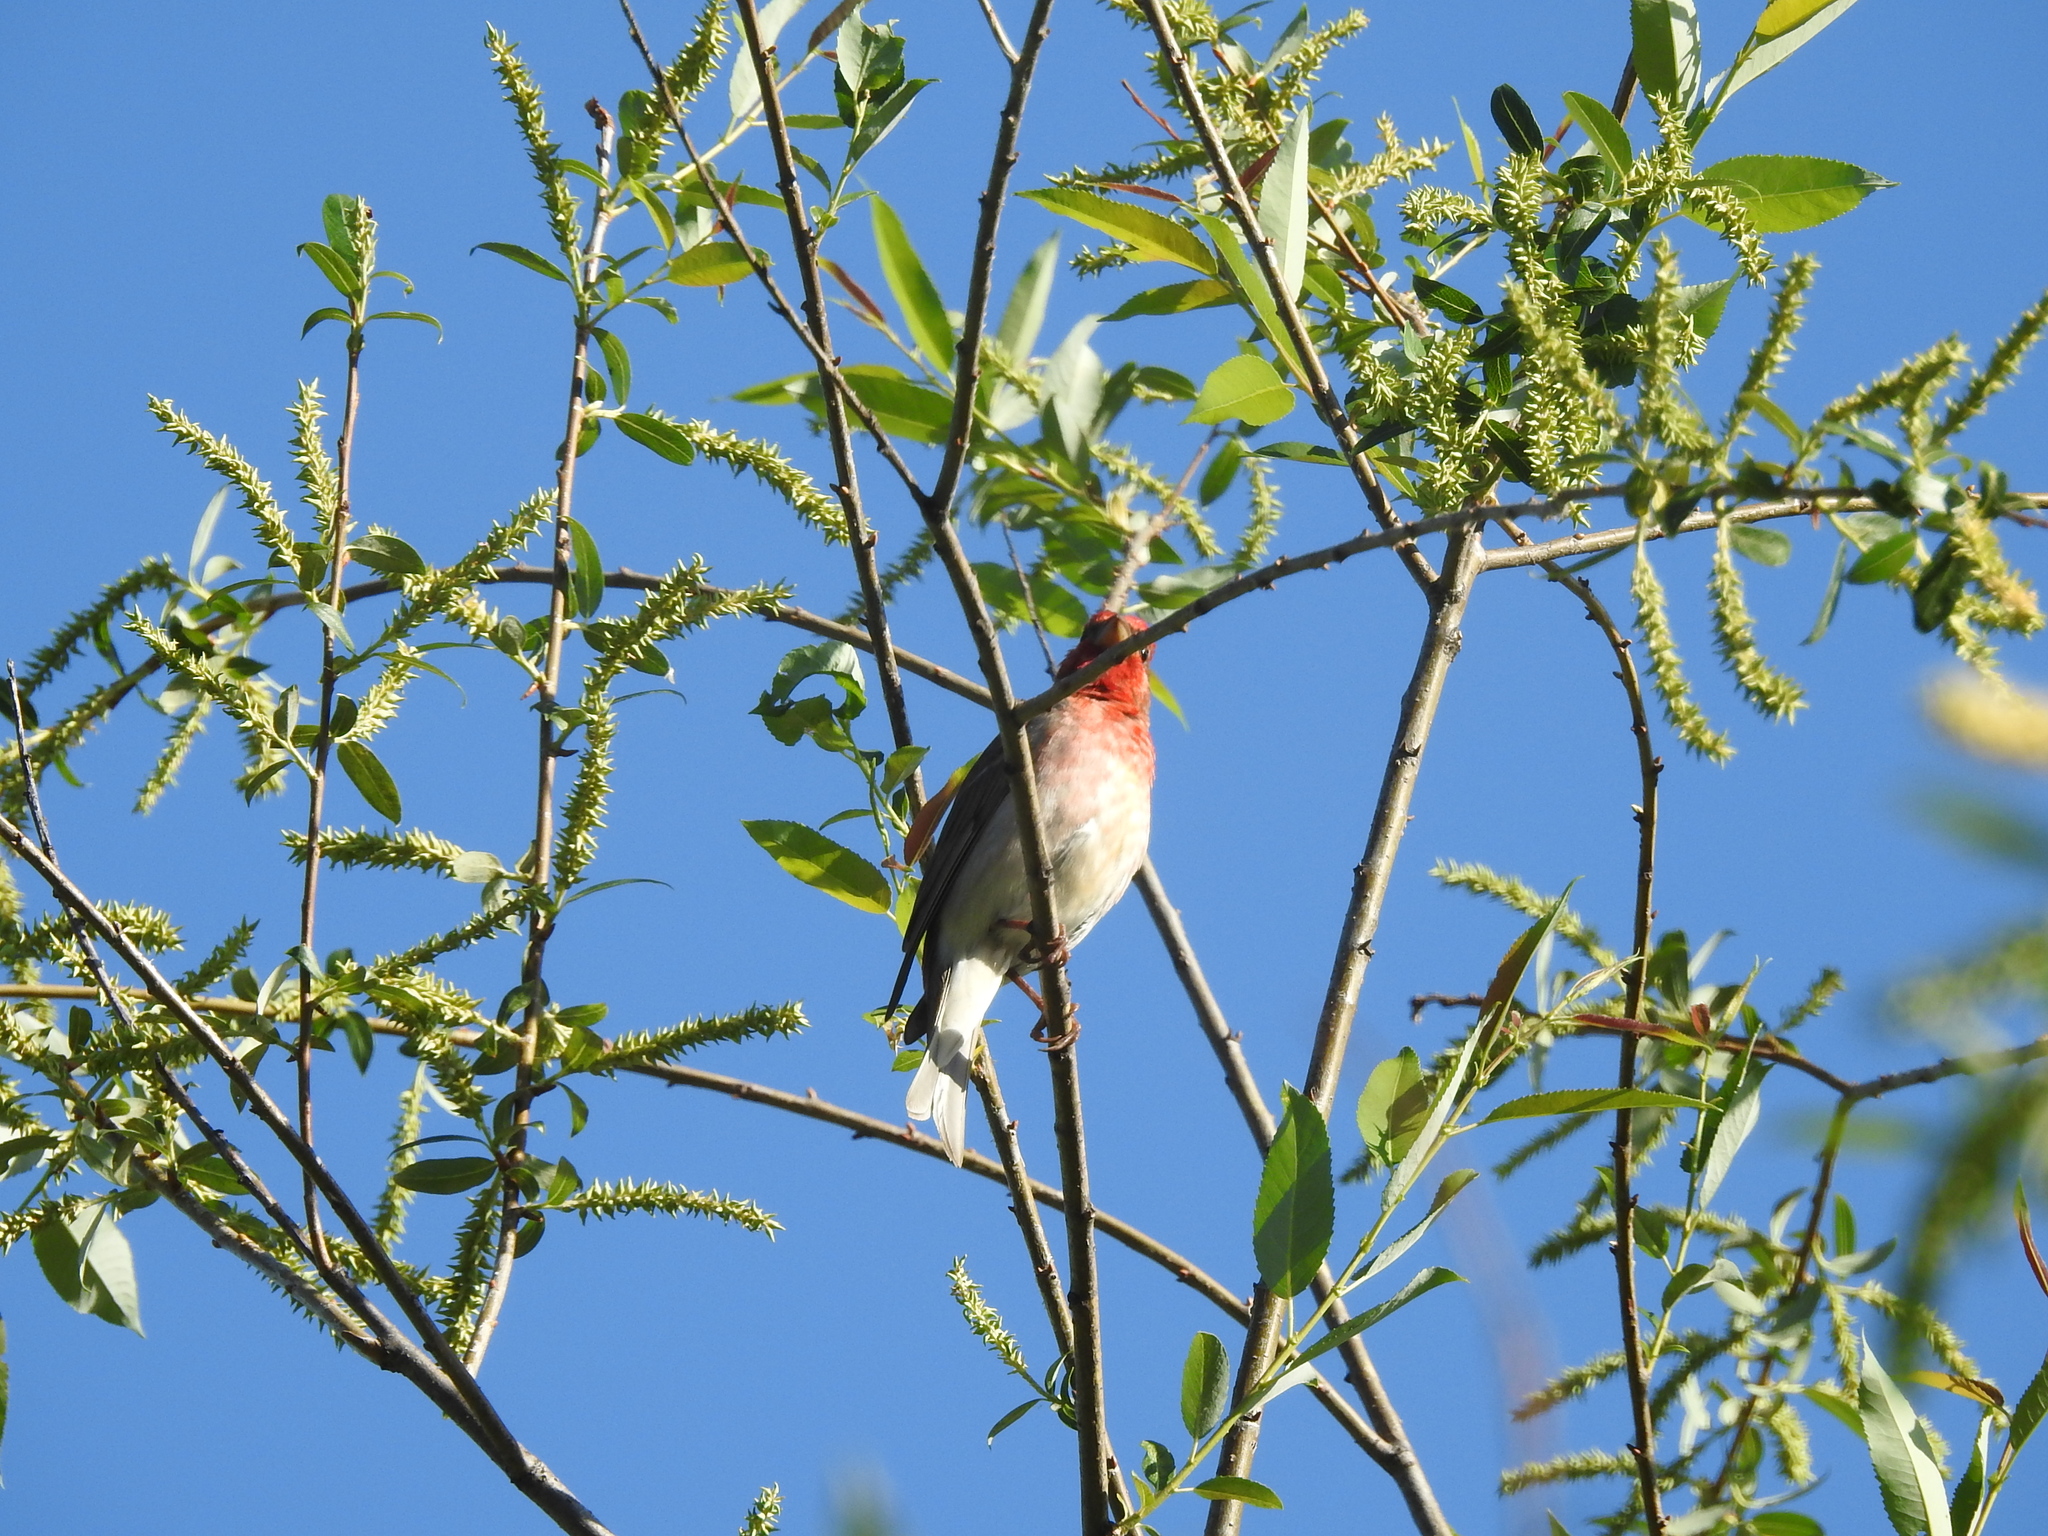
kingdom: Animalia
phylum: Chordata
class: Aves
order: Passeriformes
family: Fringillidae
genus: Carpodacus
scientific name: Carpodacus erythrinus
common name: Common rosefinch
